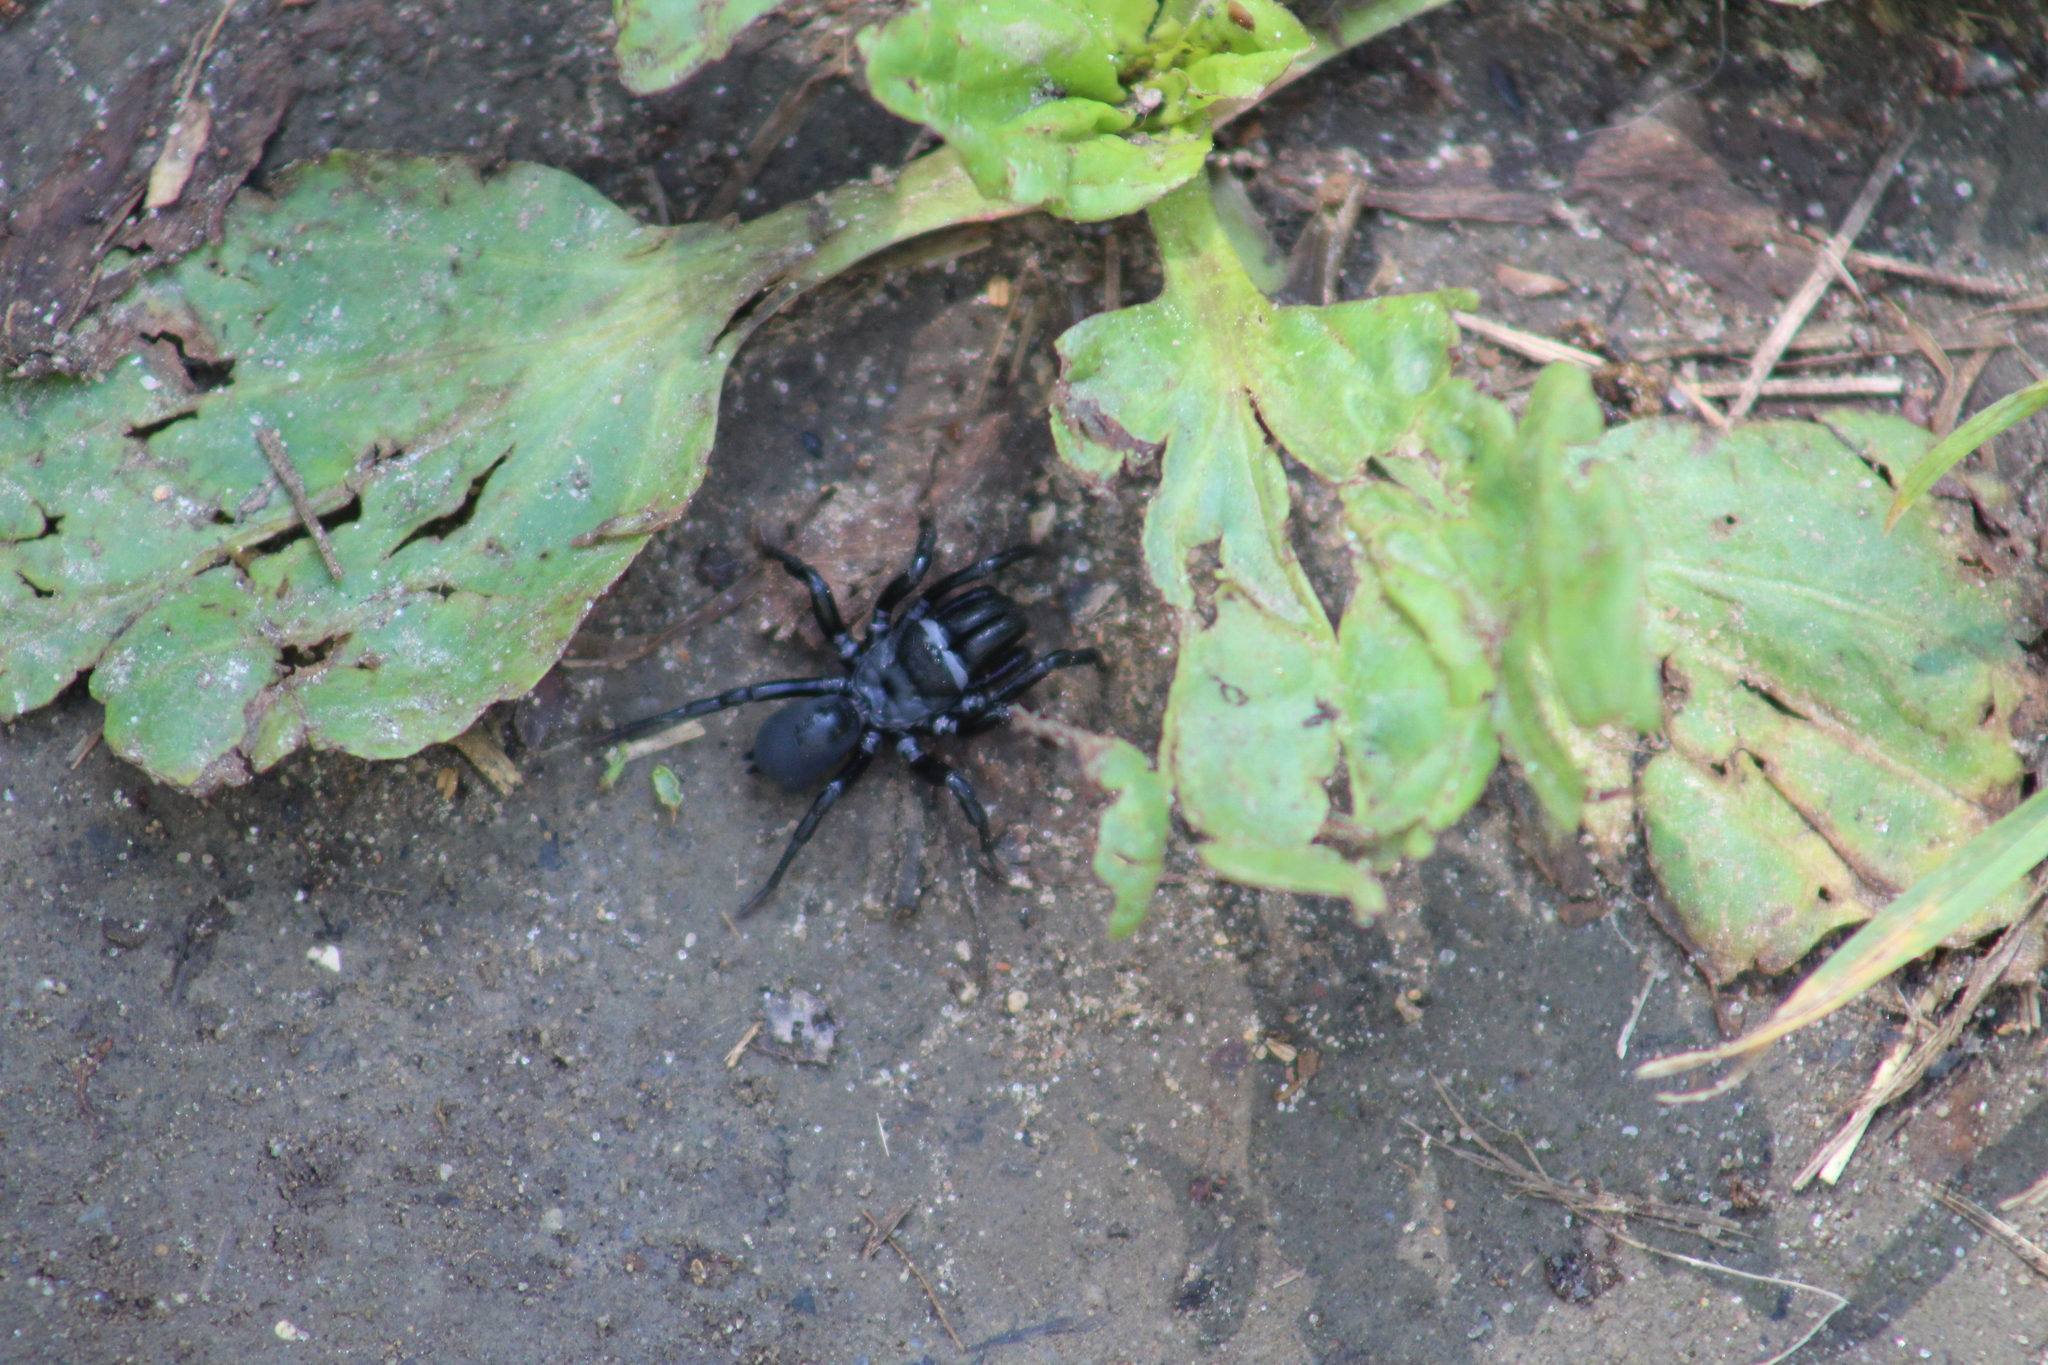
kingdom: Animalia
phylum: Arthropoda
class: Arachnida
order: Araneae
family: Atypidae
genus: Sphodros
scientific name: Sphodros niger
